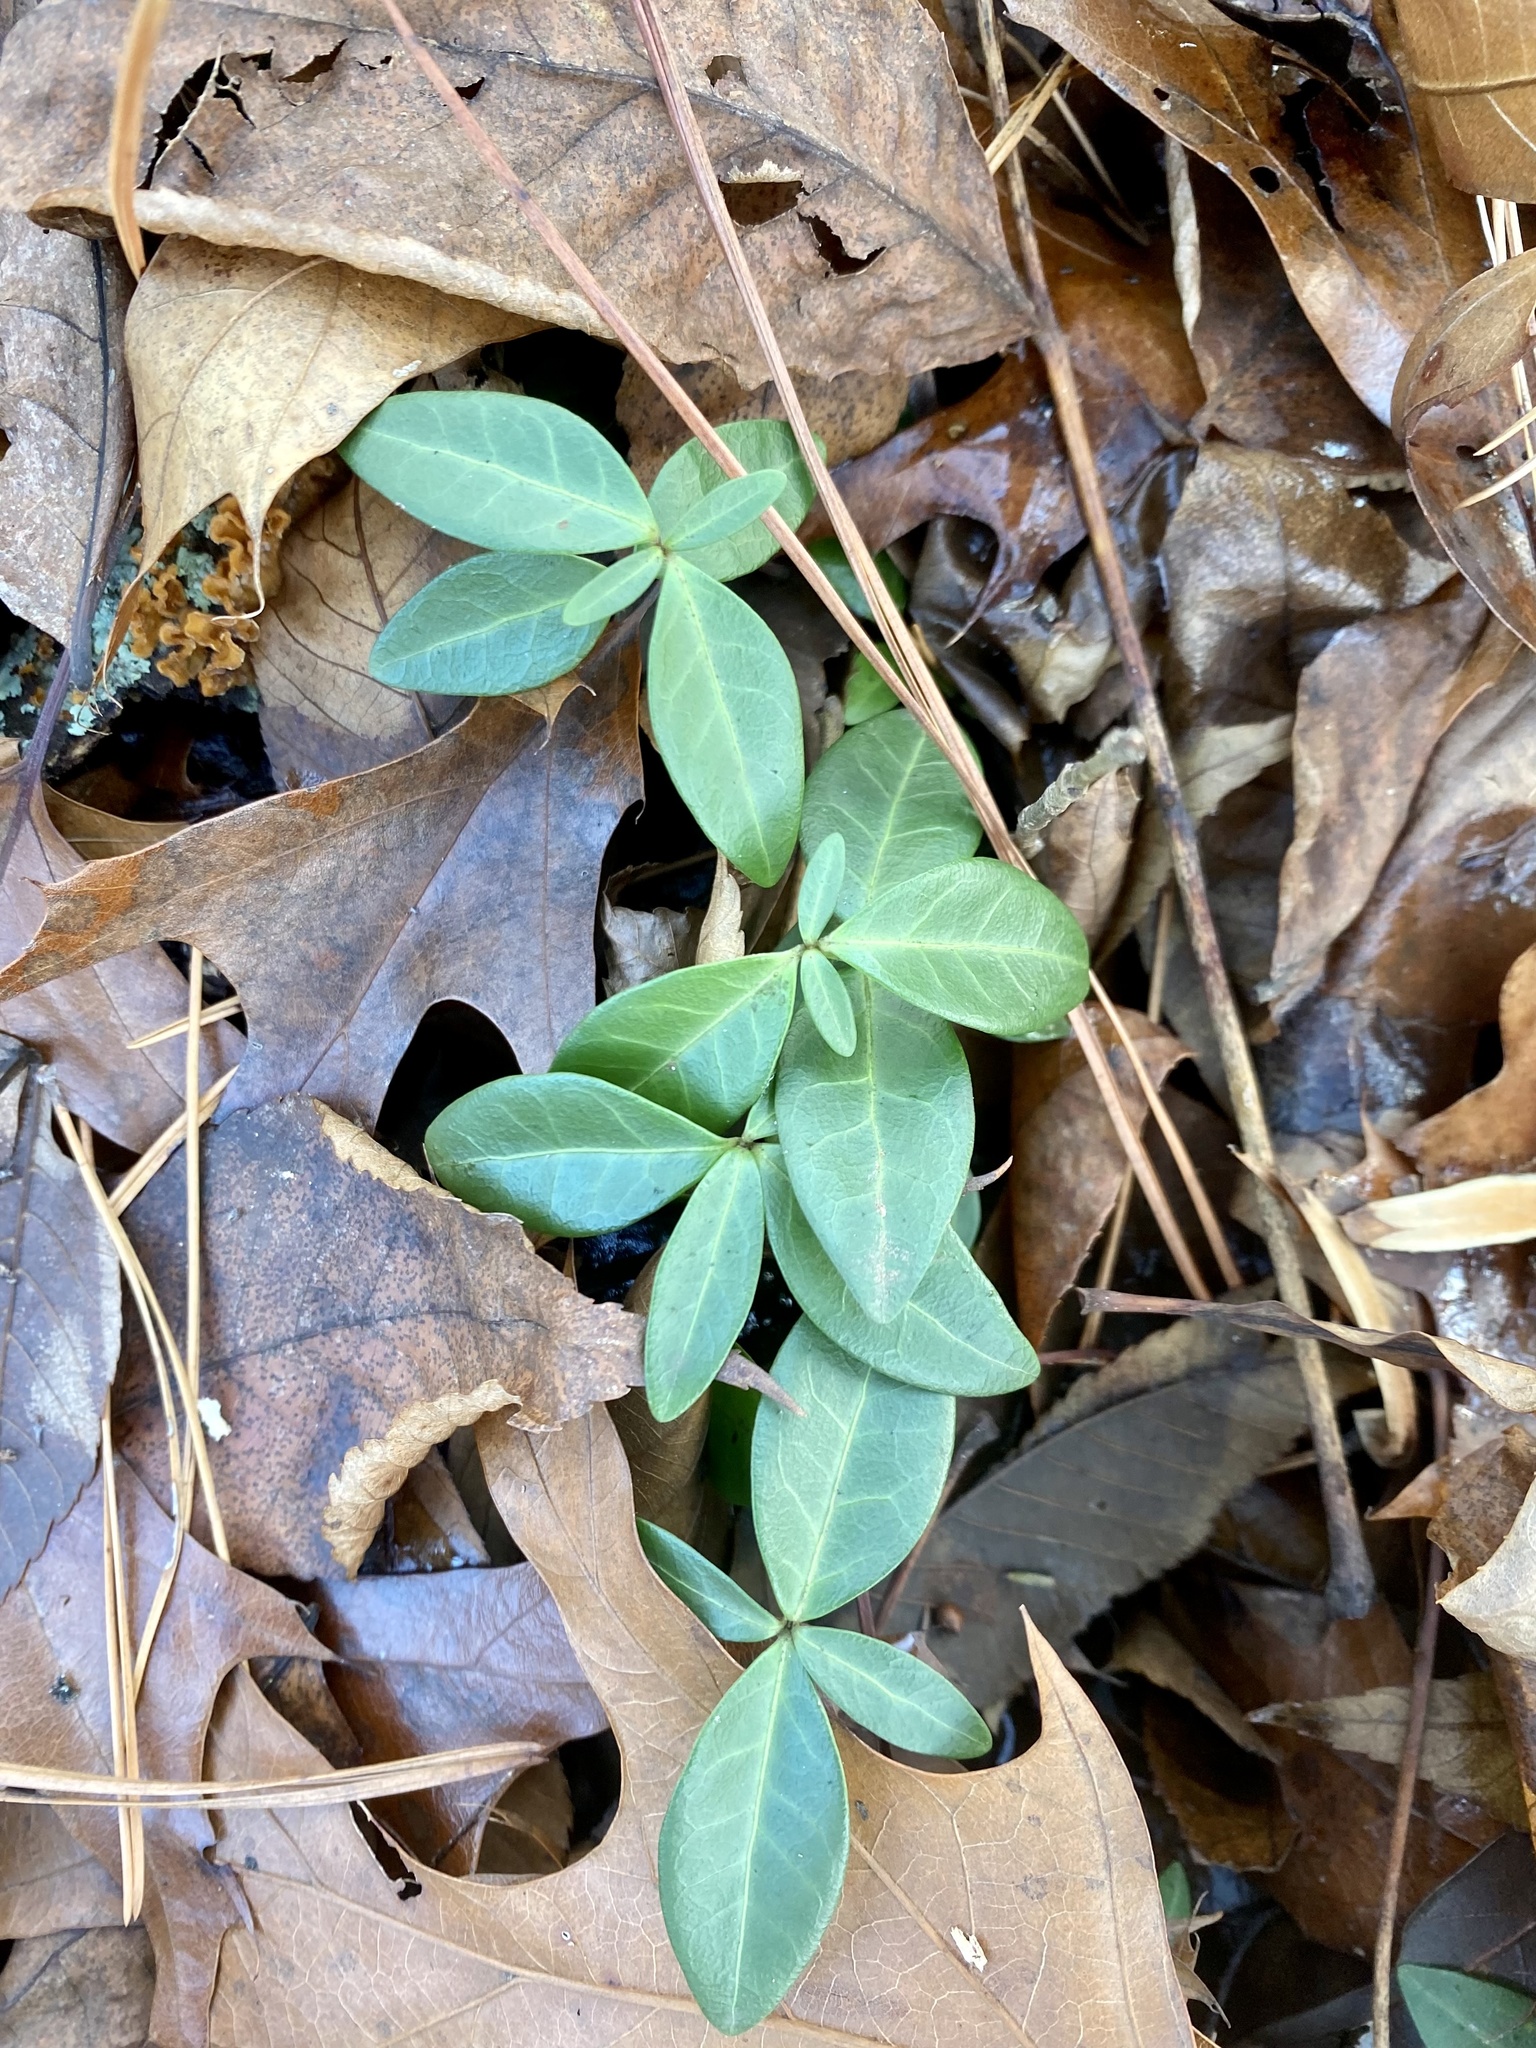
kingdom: Plantae
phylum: Tracheophyta
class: Magnoliopsida
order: Gentianales
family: Apocynaceae
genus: Vinca
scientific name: Vinca minor
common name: Lesser periwinkle
